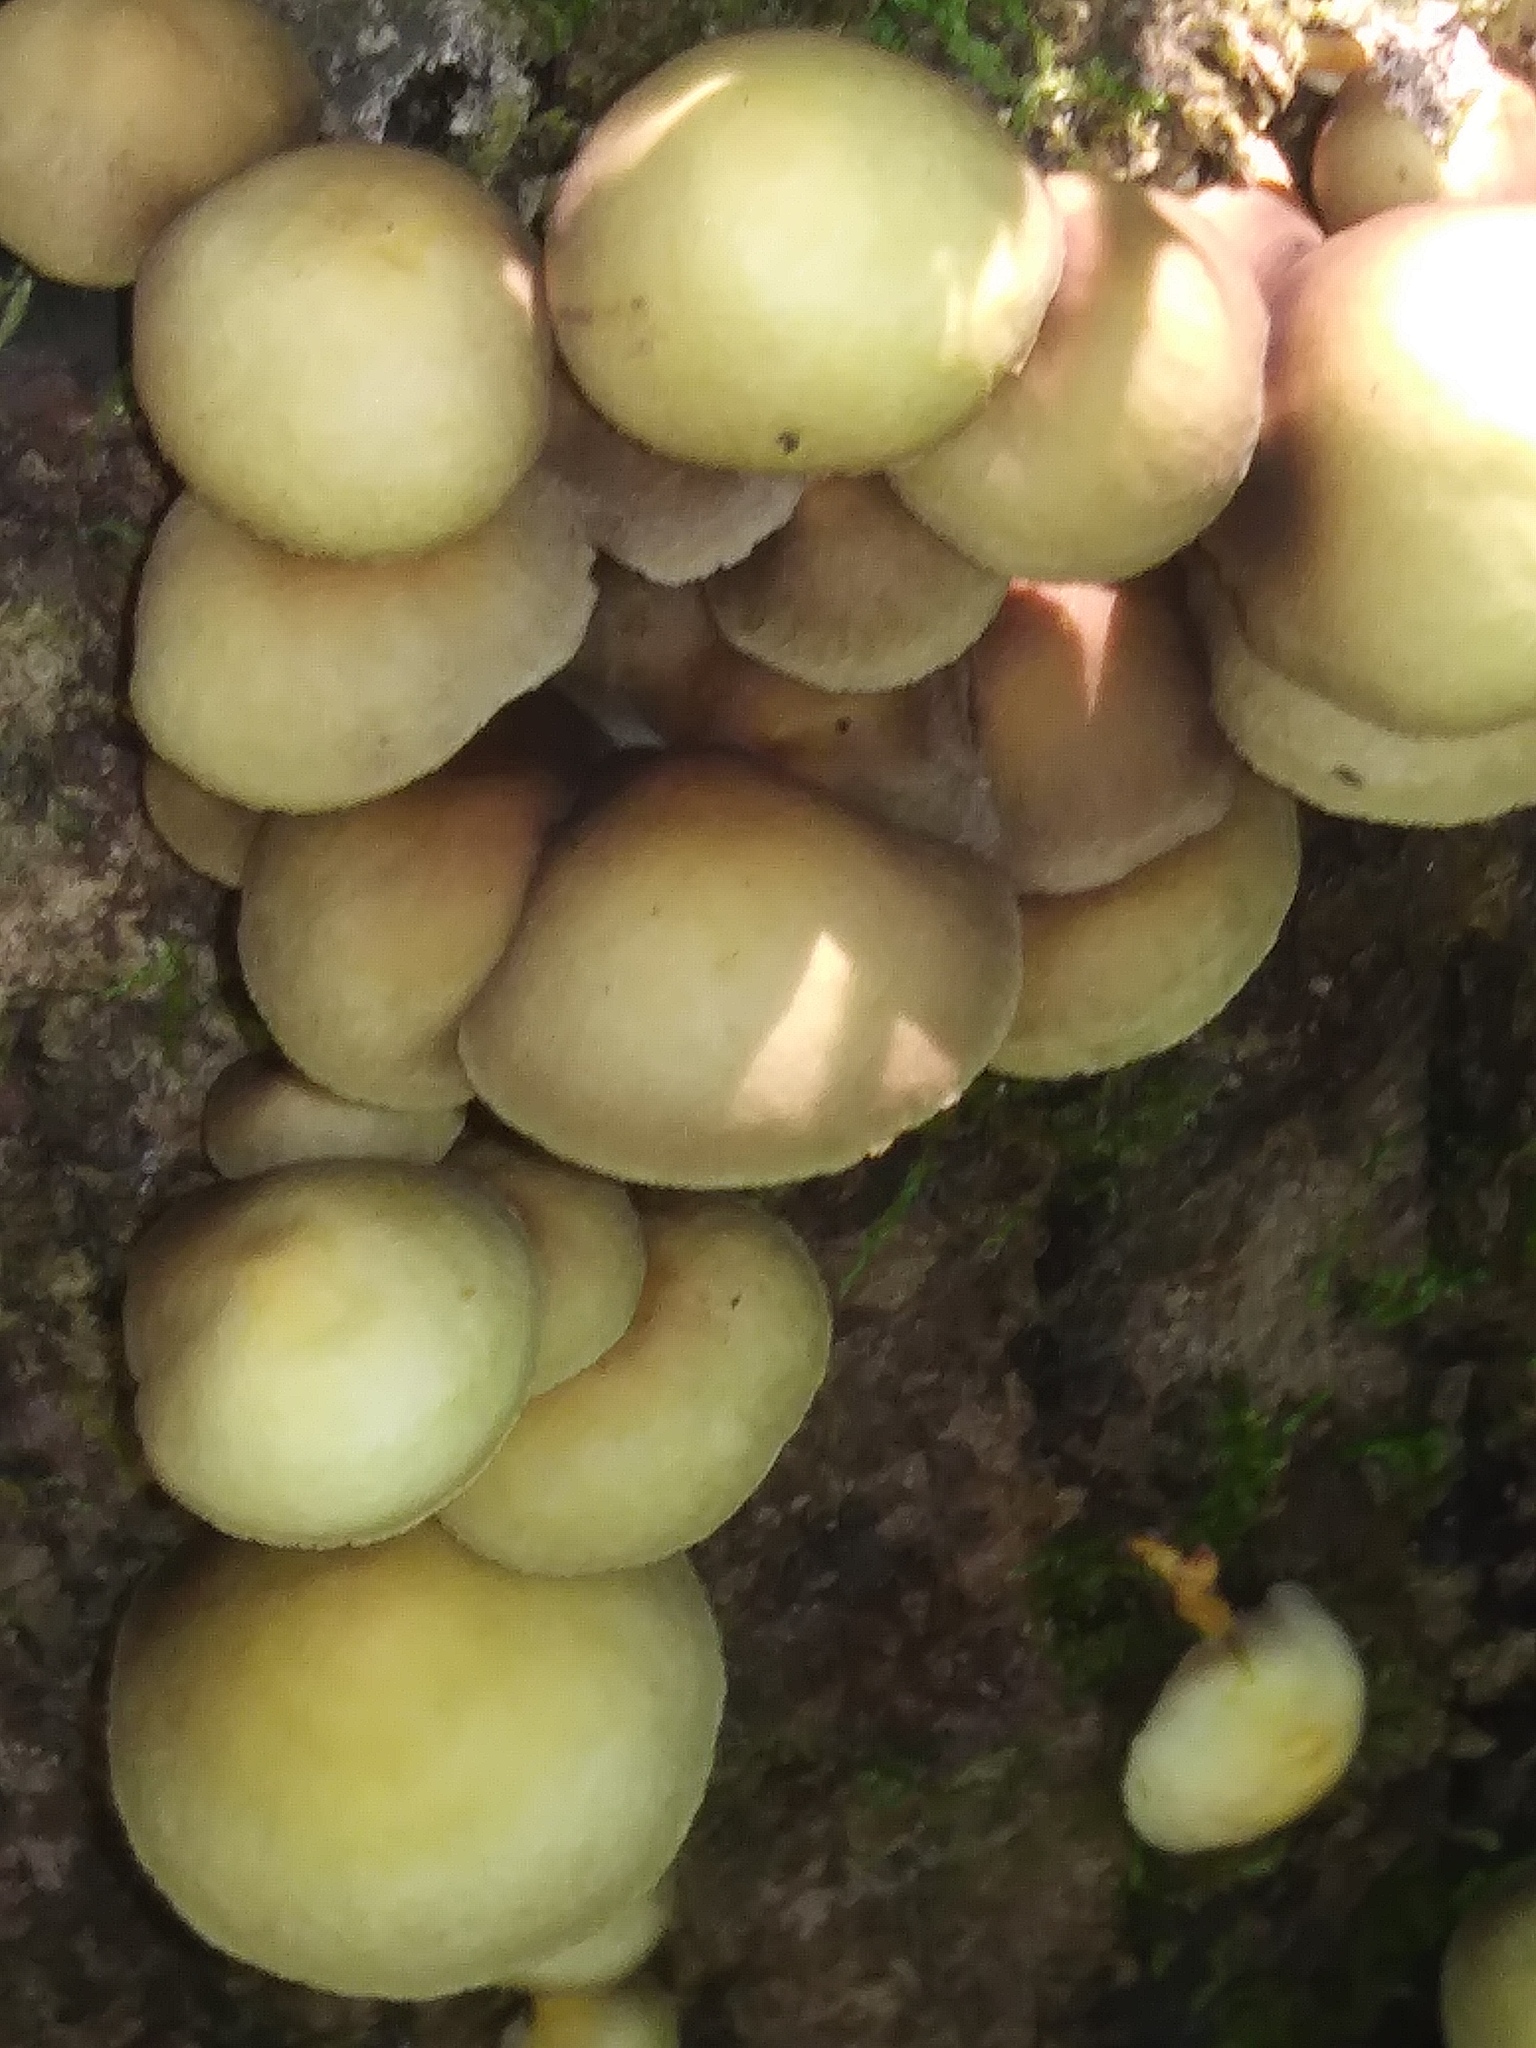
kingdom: Fungi
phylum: Basidiomycota
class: Agaricomycetes
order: Agaricales
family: Strophariaceae
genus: Hypholoma
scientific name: Hypholoma fasciculare
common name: Sulphur tuft
